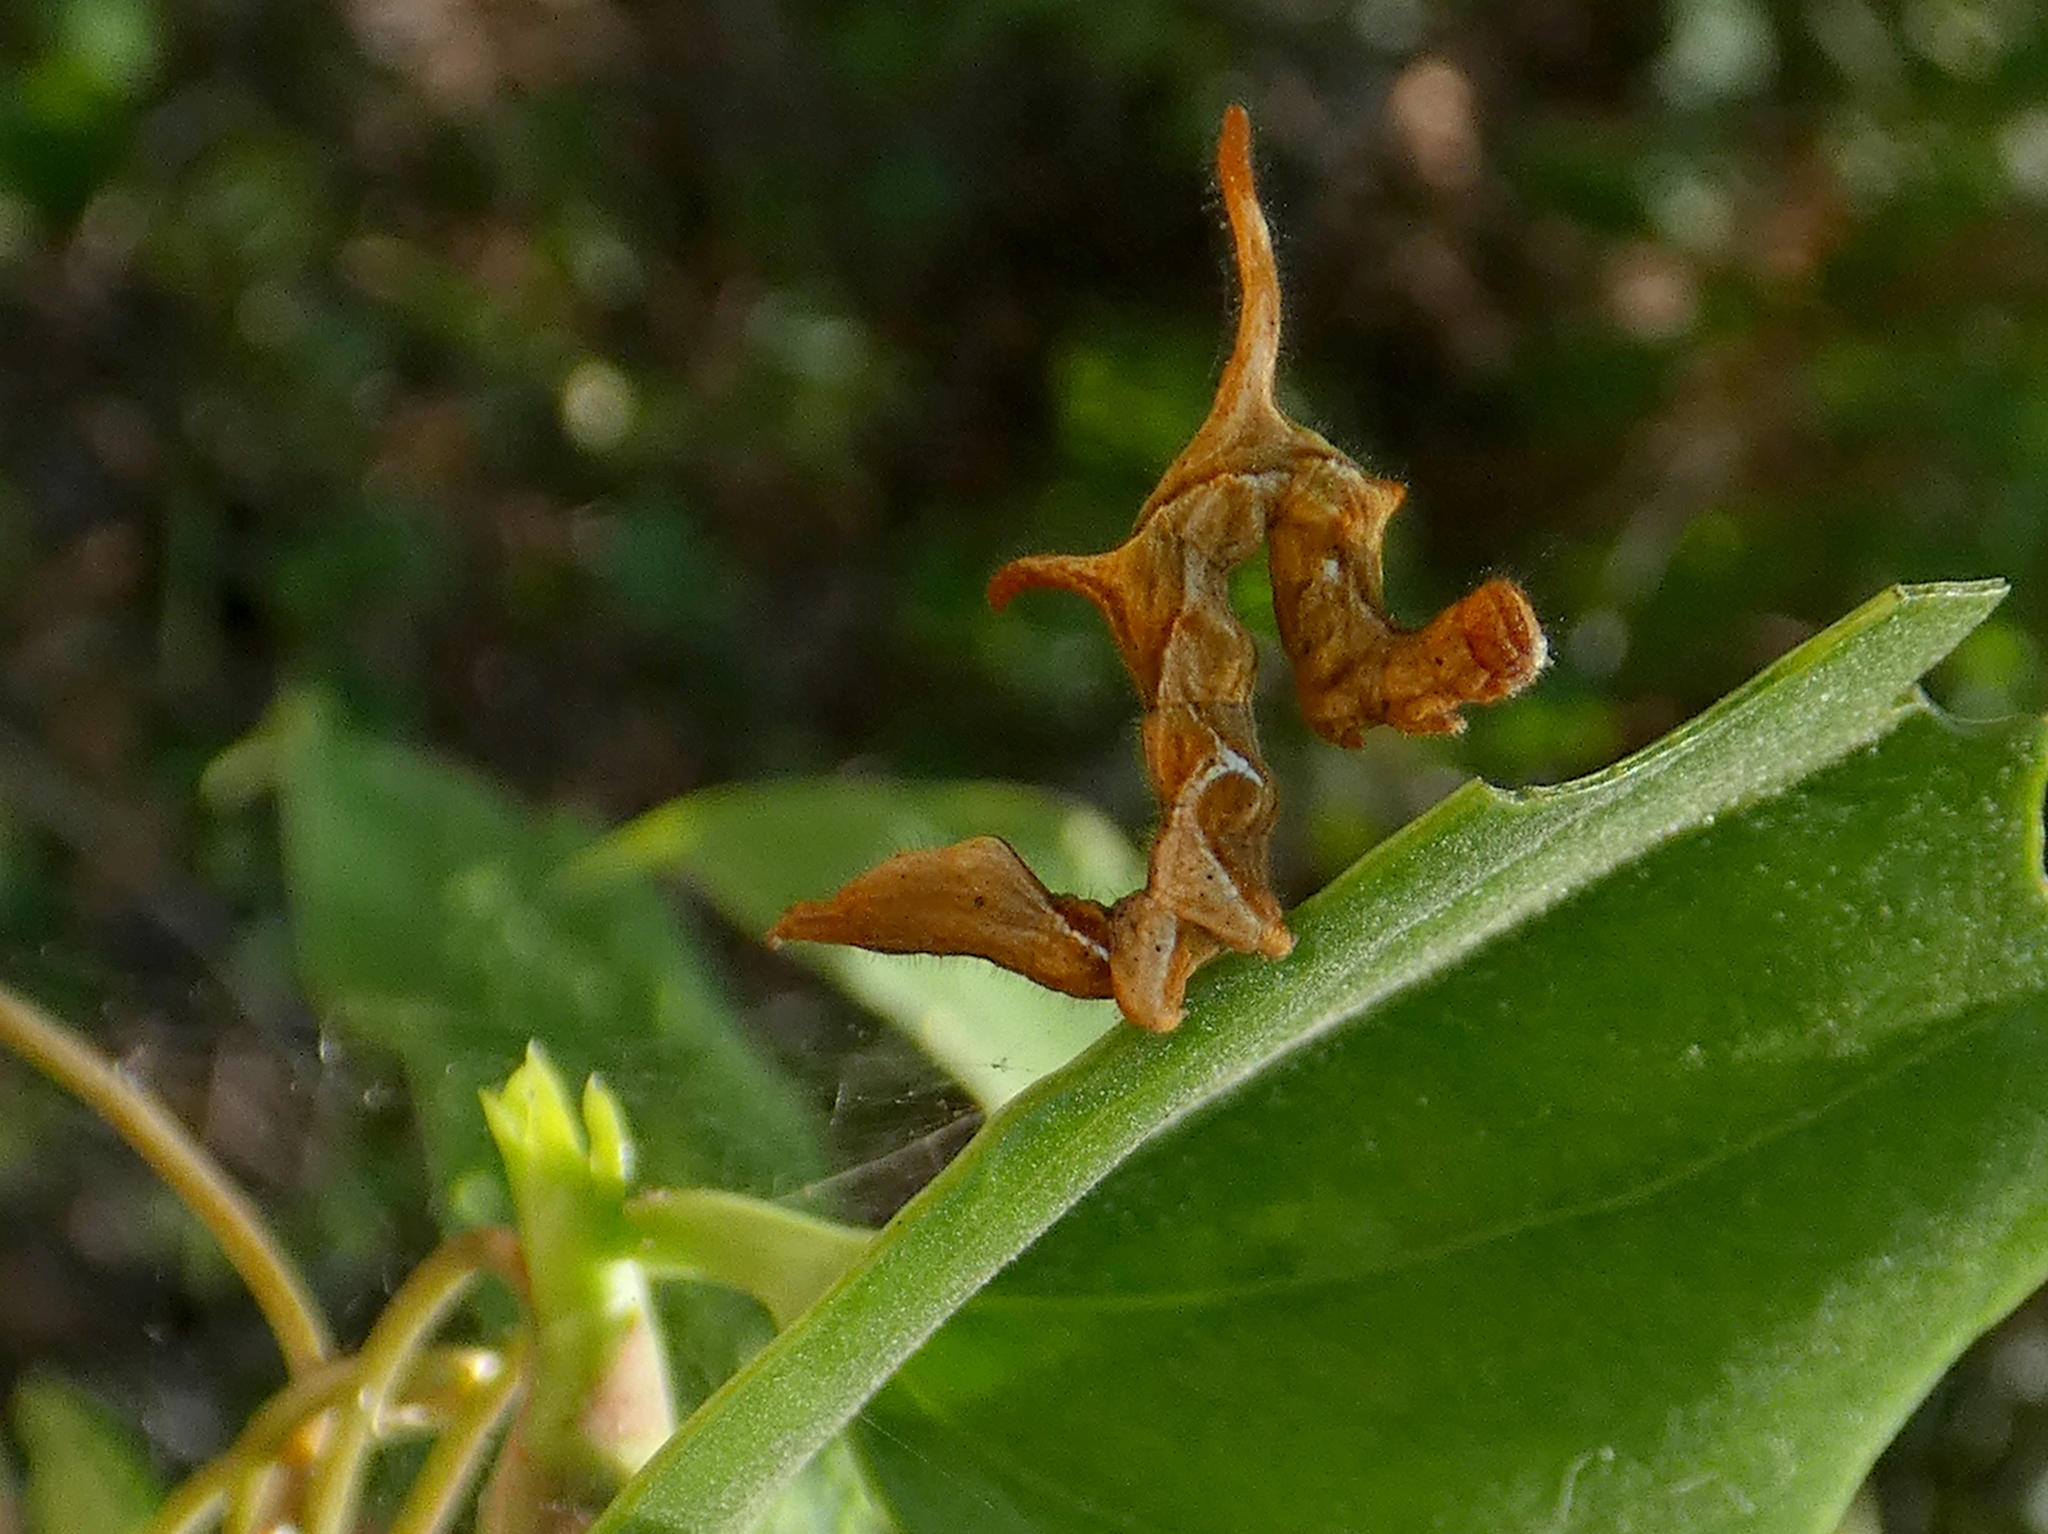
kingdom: Animalia
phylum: Arthropoda
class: Insecta
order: Lepidoptera
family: Erebidae
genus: Phyprosopus
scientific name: Phyprosopus callitrichoides
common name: Curved-lined owlet
